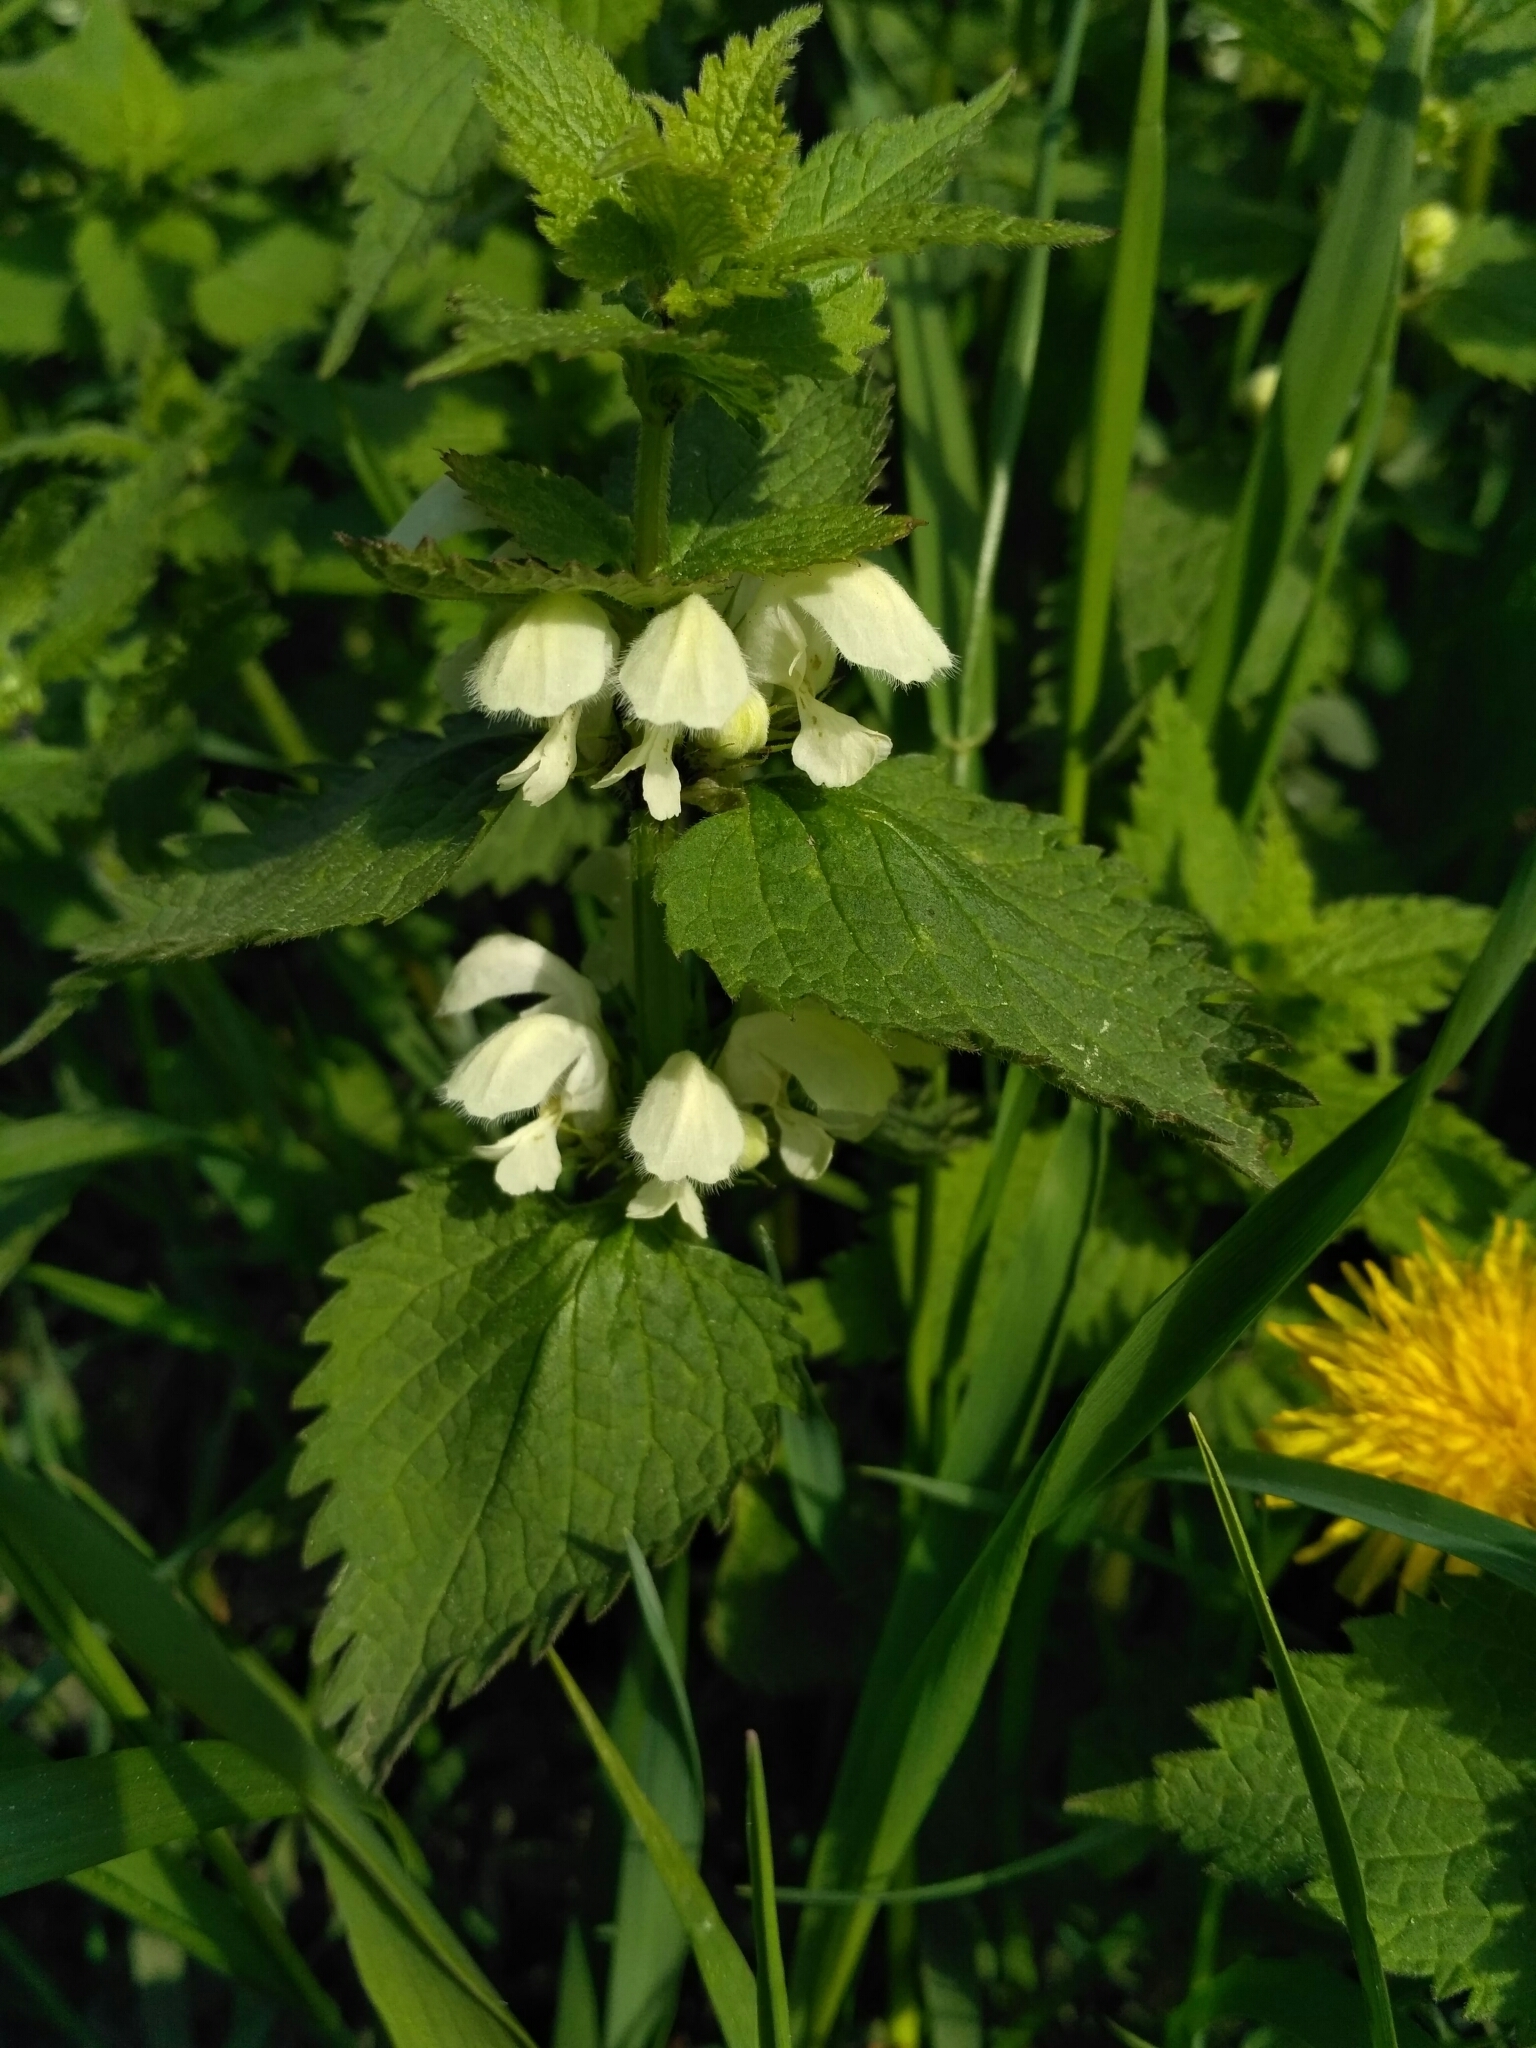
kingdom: Plantae
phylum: Tracheophyta
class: Magnoliopsida
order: Lamiales
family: Lamiaceae
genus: Lamium
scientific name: Lamium album
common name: White dead-nettle
